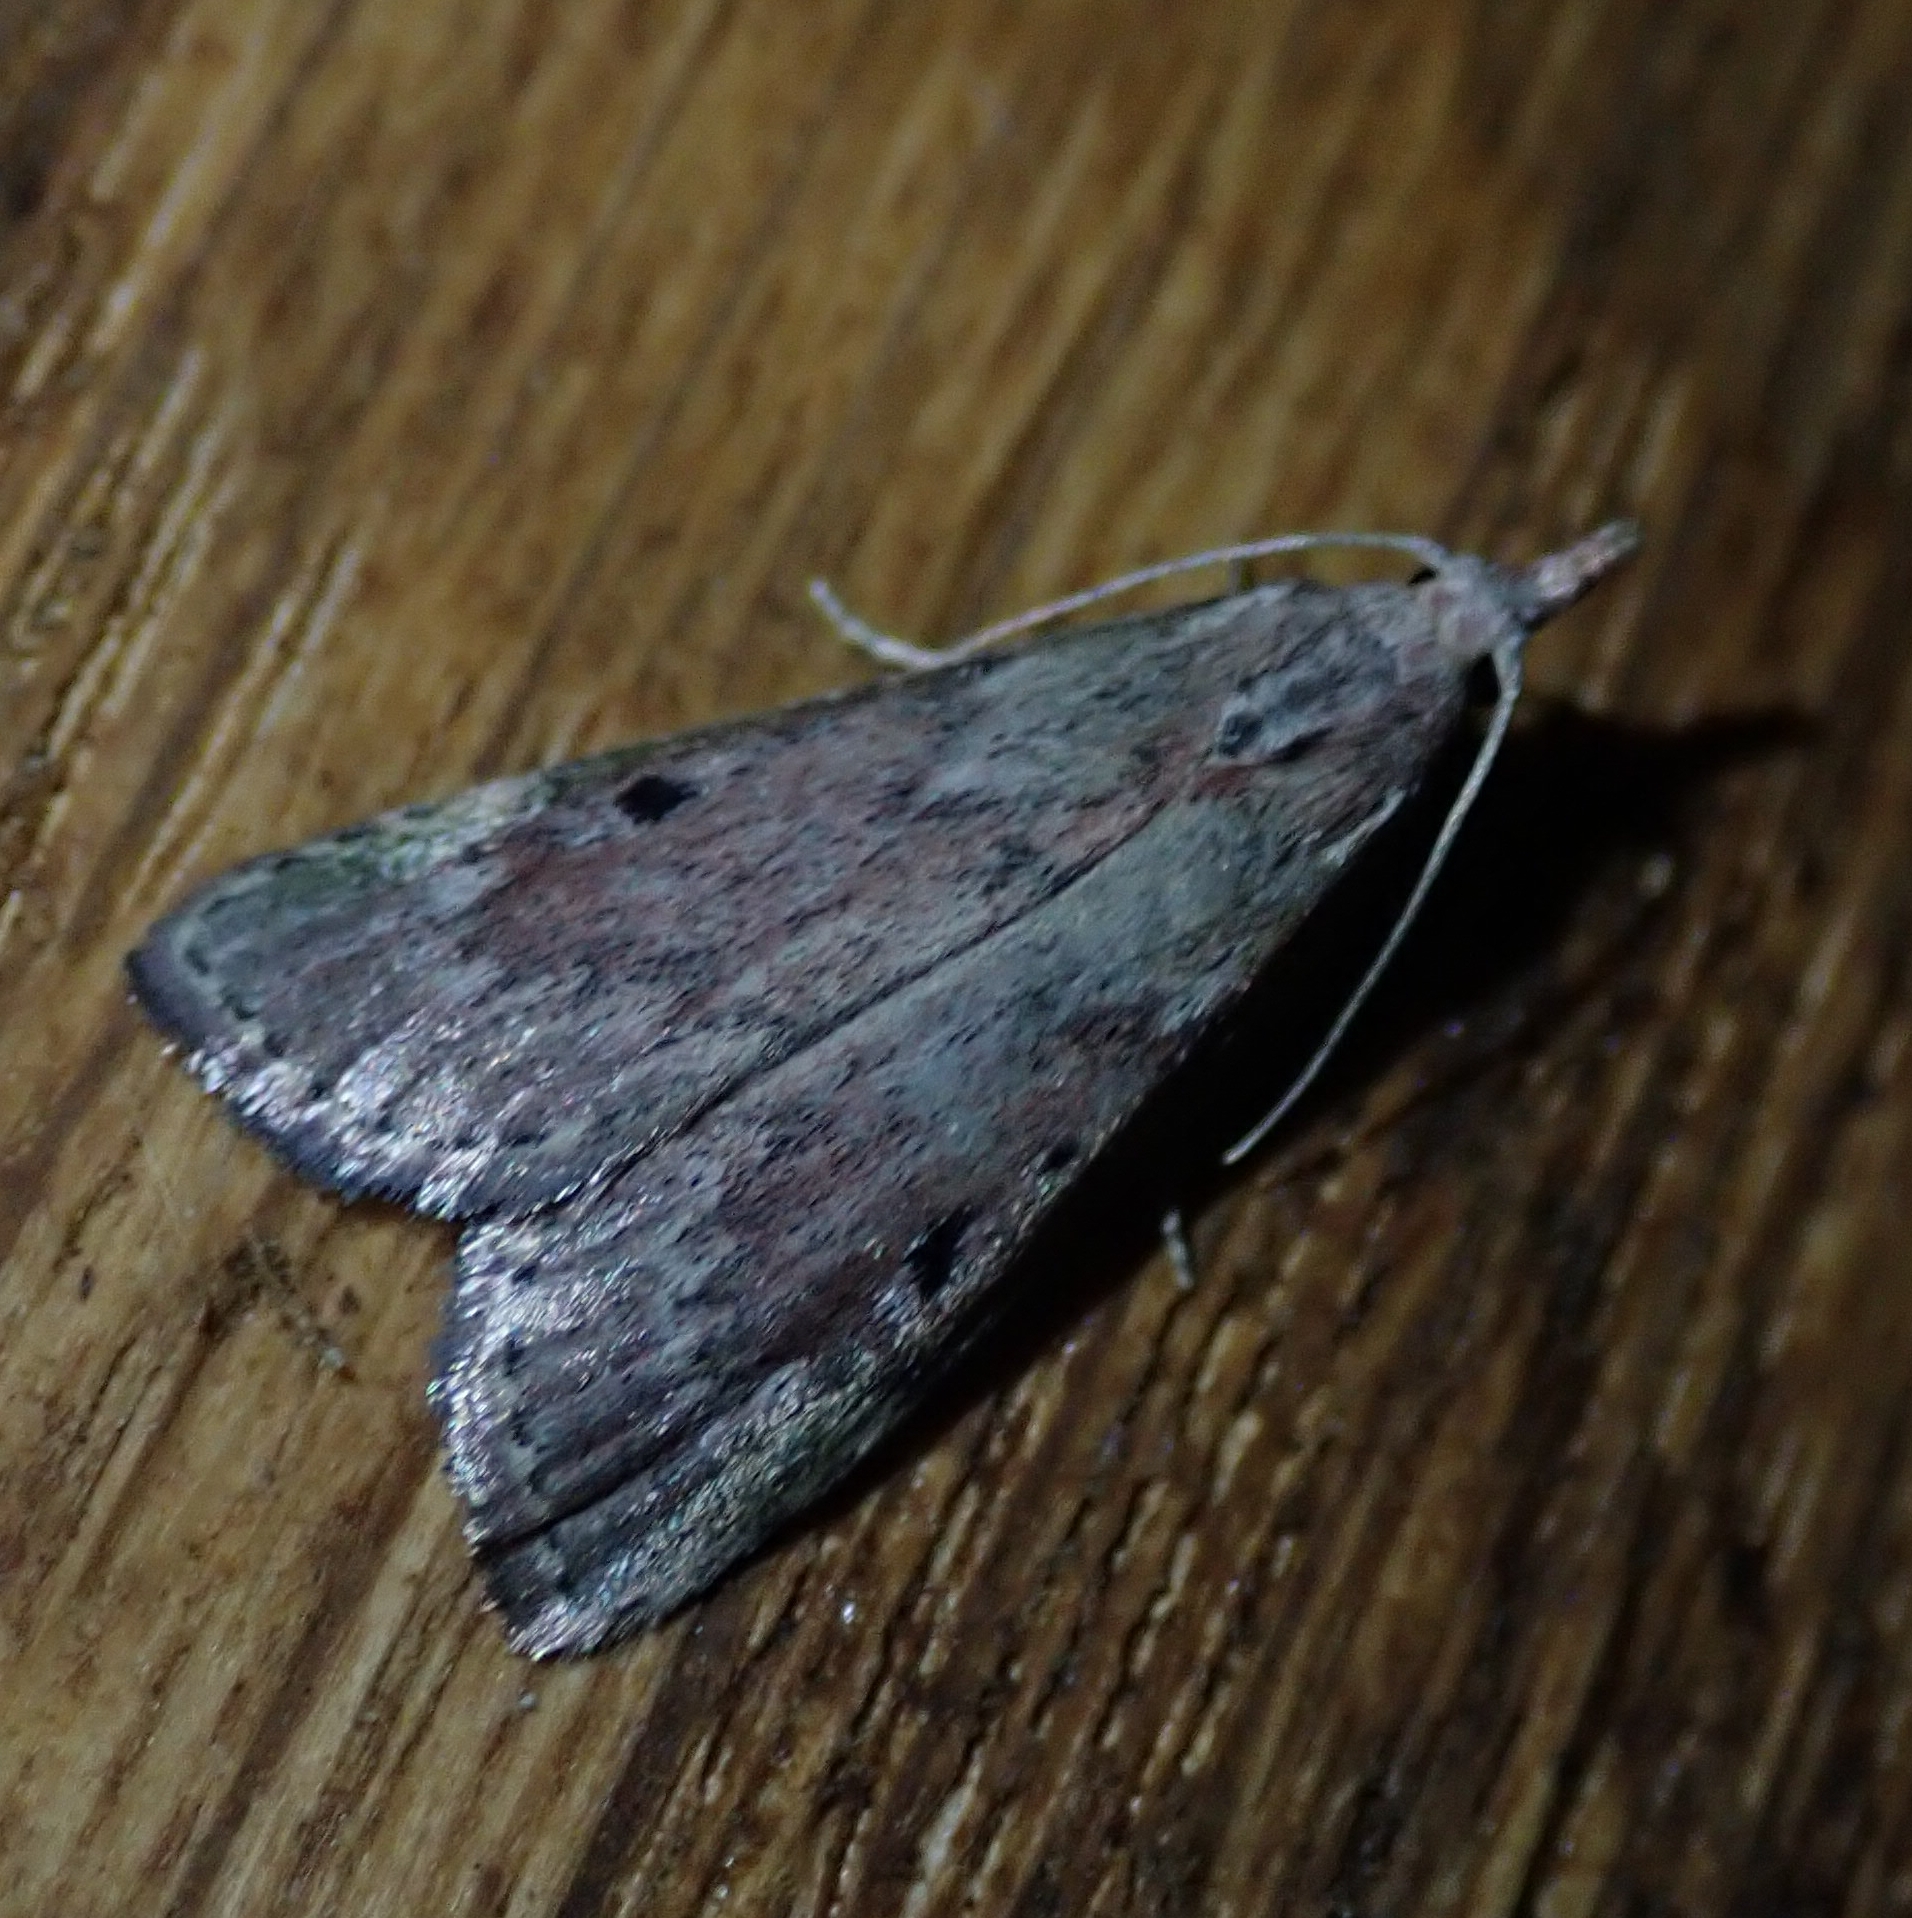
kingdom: Animalia
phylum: Arthropoda
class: Insecta
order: Lepidoptera
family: Pyralidae
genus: Aphomia
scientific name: Aphomia sociella
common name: Bee moth
